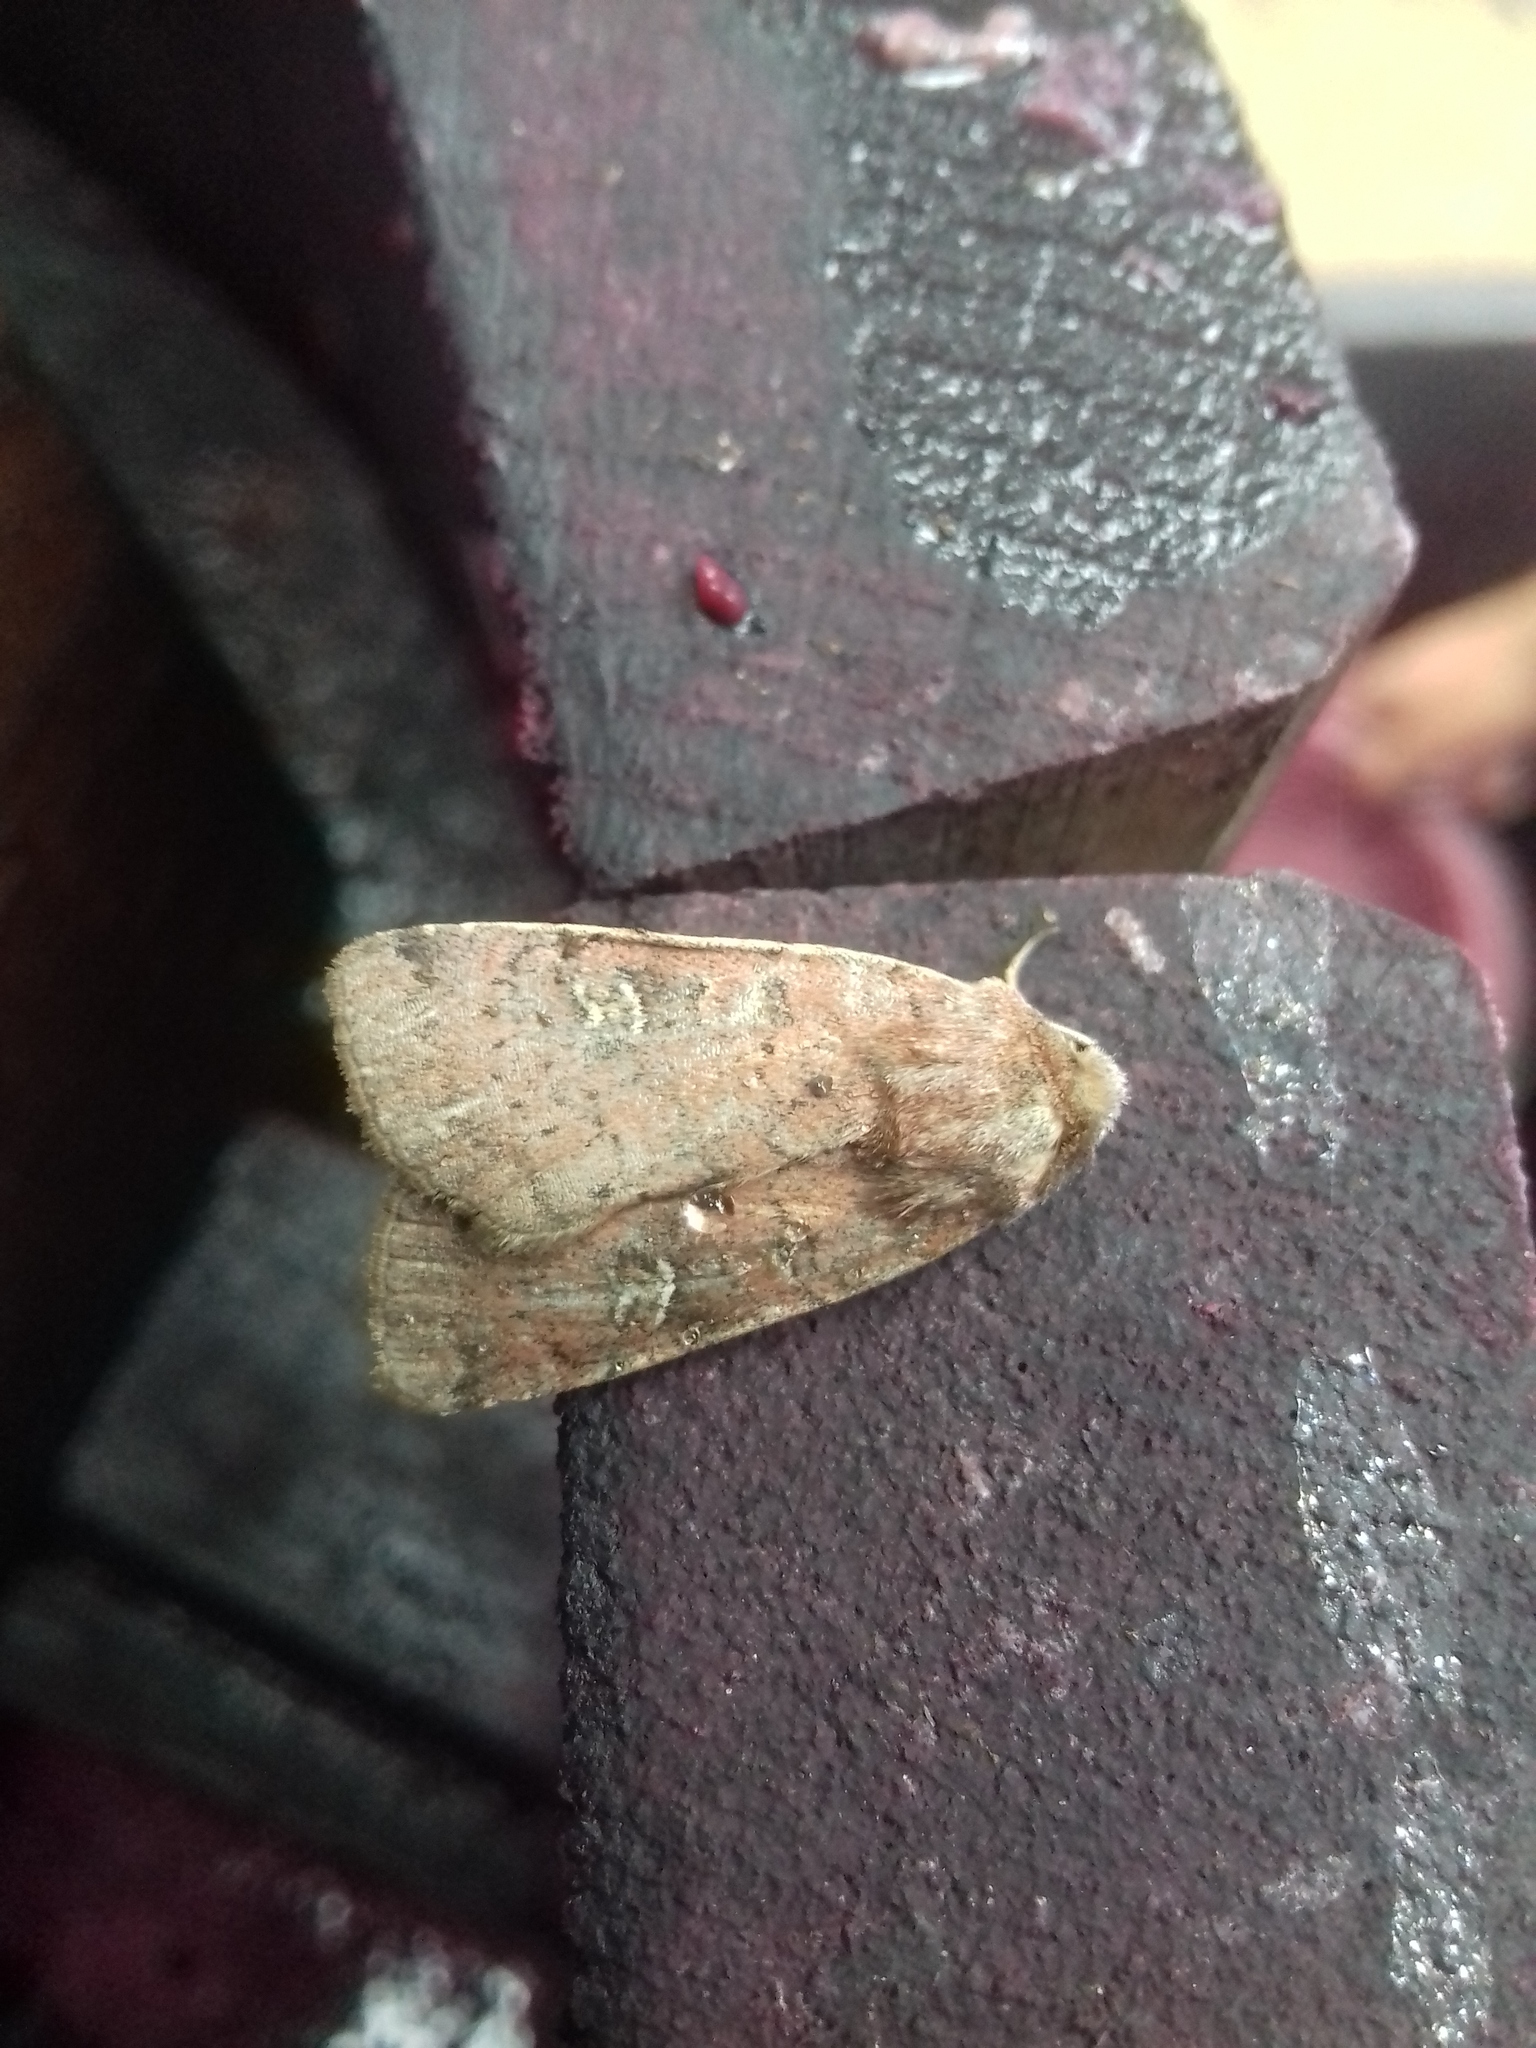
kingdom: Animalia
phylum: Arthropoda
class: Insecta
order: Lepidoptera
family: Noctuidae
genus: Xestia
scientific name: Xestia xanthographa
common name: Square-spot rustic
